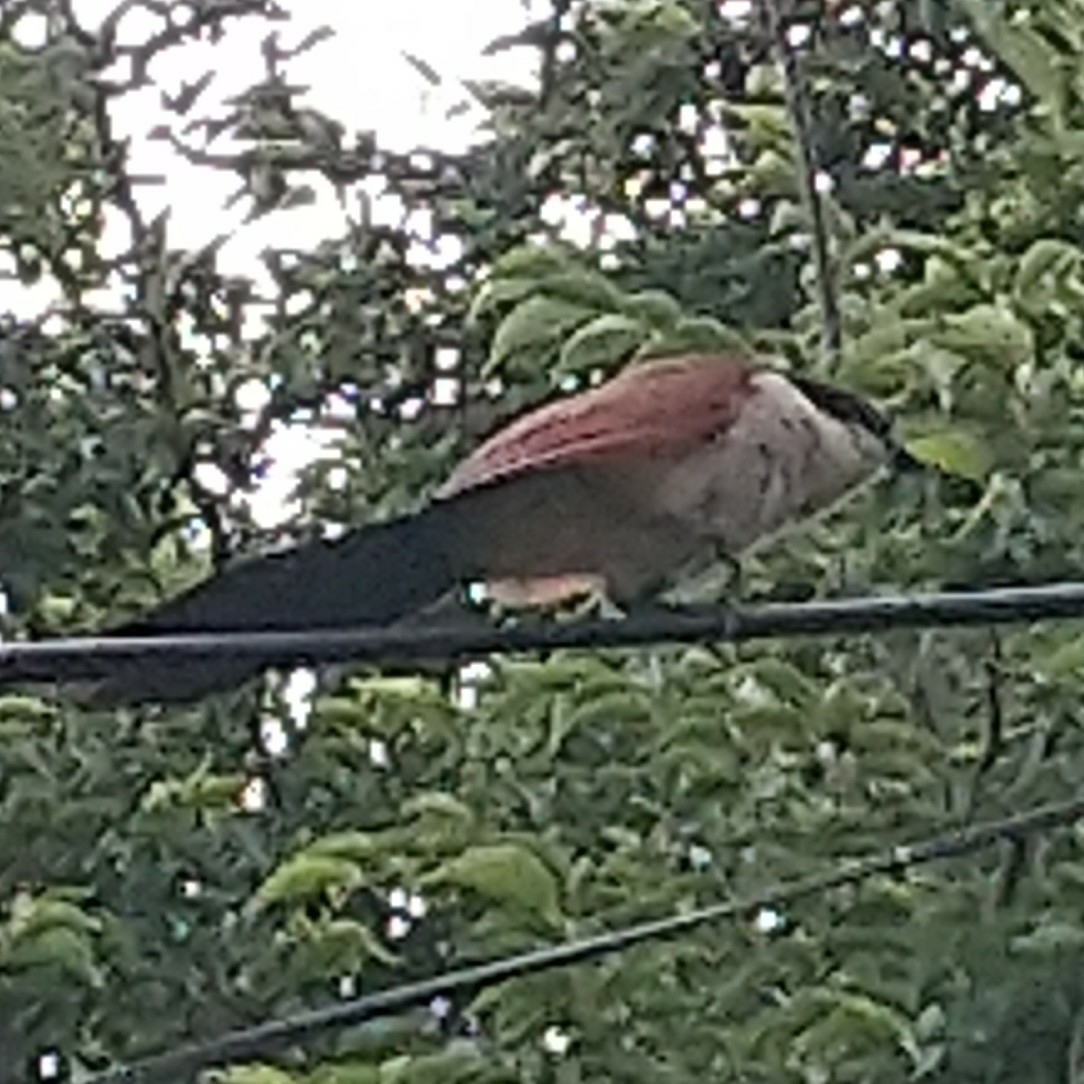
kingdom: Animalia
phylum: Chordata
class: Aves
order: Cuculiformes
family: Cuculidae
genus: Centropus
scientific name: Centropus superciliosus
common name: White-browed coucal
